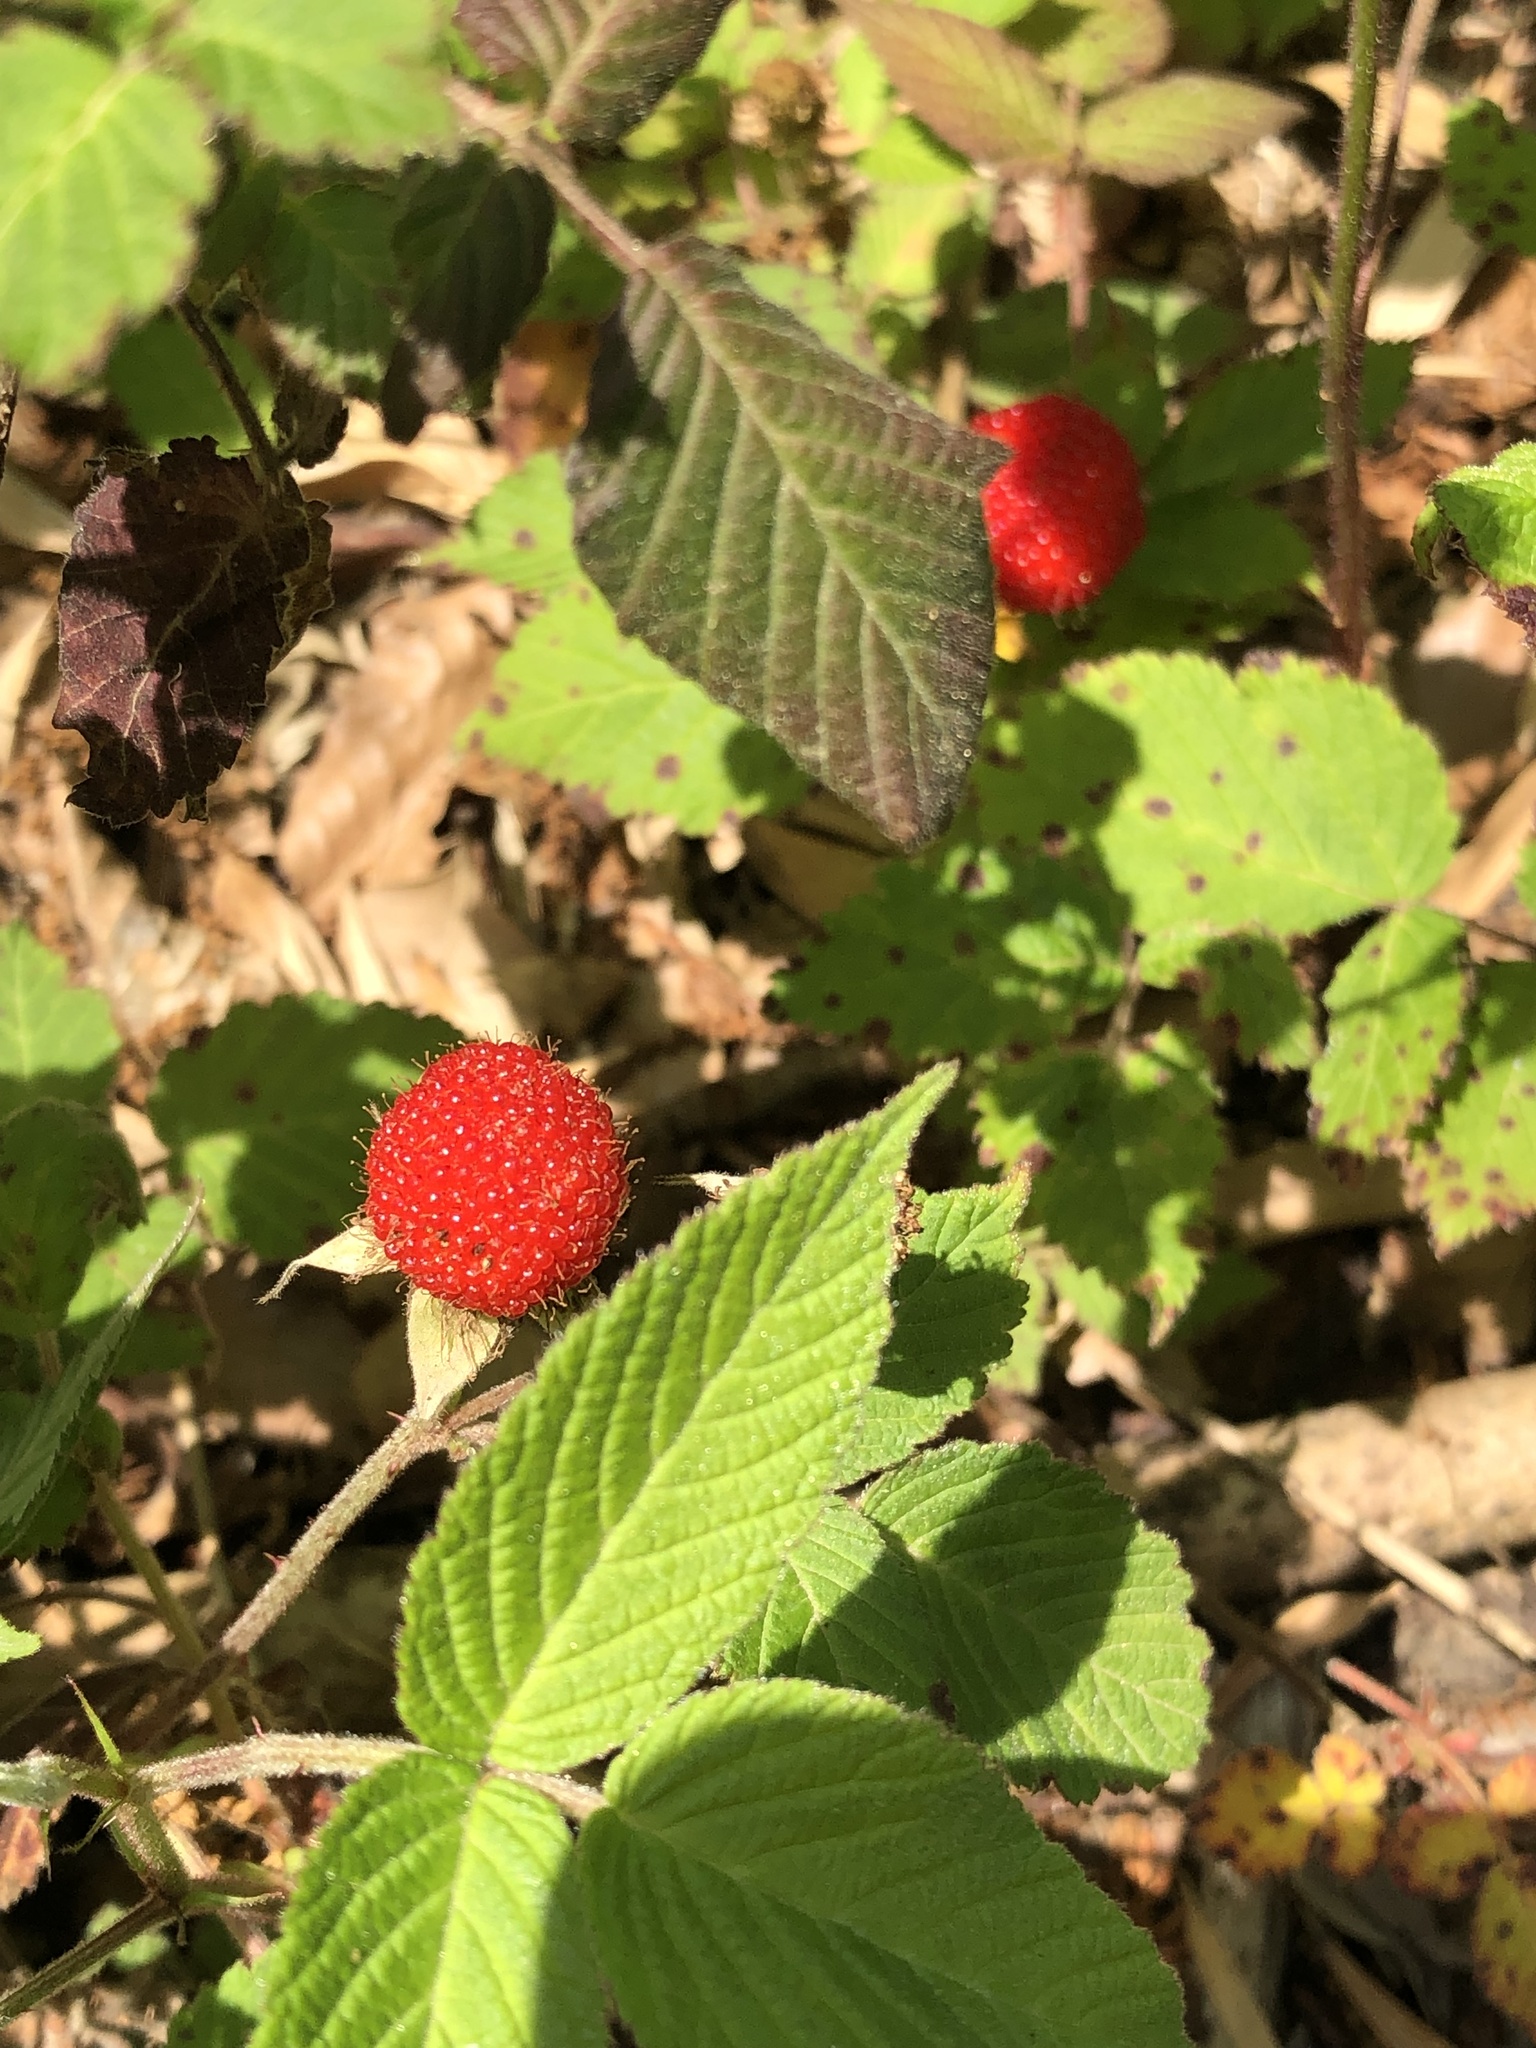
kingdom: Plantae
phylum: Tracheophyta
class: Magnoliopsida
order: Rosales
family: Rosaceae
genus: Rubus
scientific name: Rubus hirsutus
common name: Hirsute raspberry
